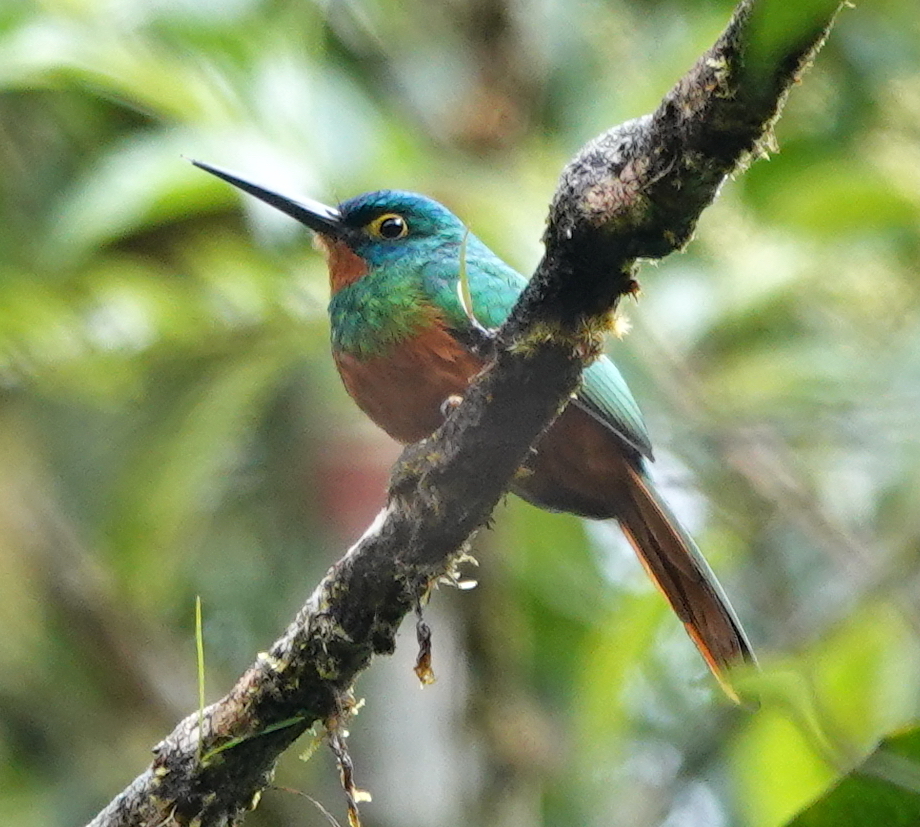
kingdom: Animalia
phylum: Chordata
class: Aves
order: Piciformes
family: Galbulidae
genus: Galbula
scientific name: Galbula pastazae
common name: Coppery-chested jacamar
